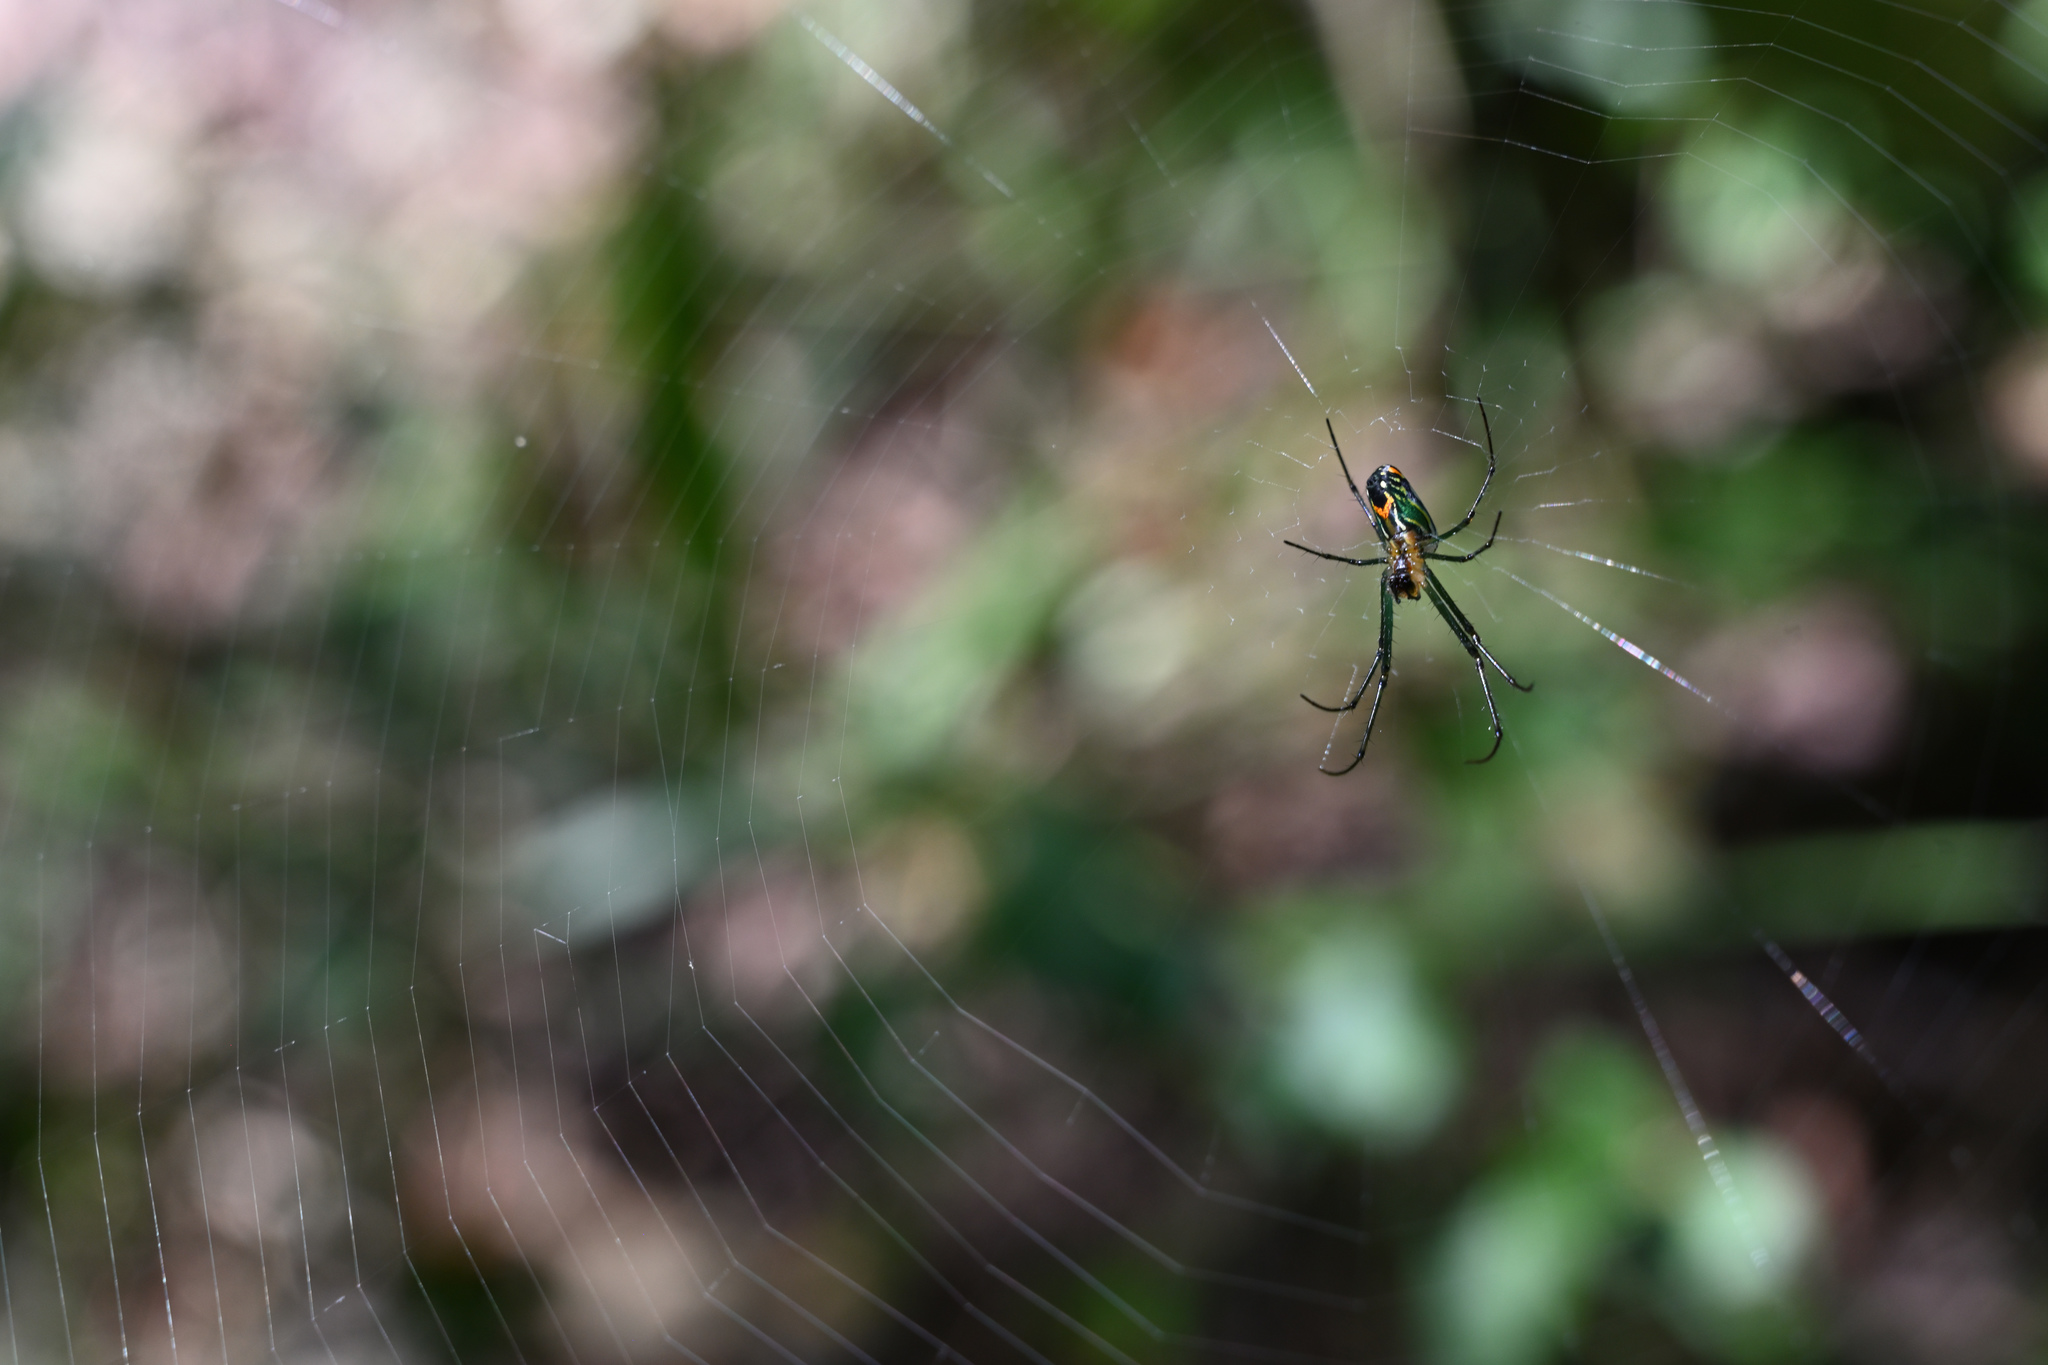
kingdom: Animalia
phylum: Arthropoda
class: Arachnida
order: Araneae
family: Tetragnathidae
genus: Leucauge
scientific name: Leucauge argyrobapta
